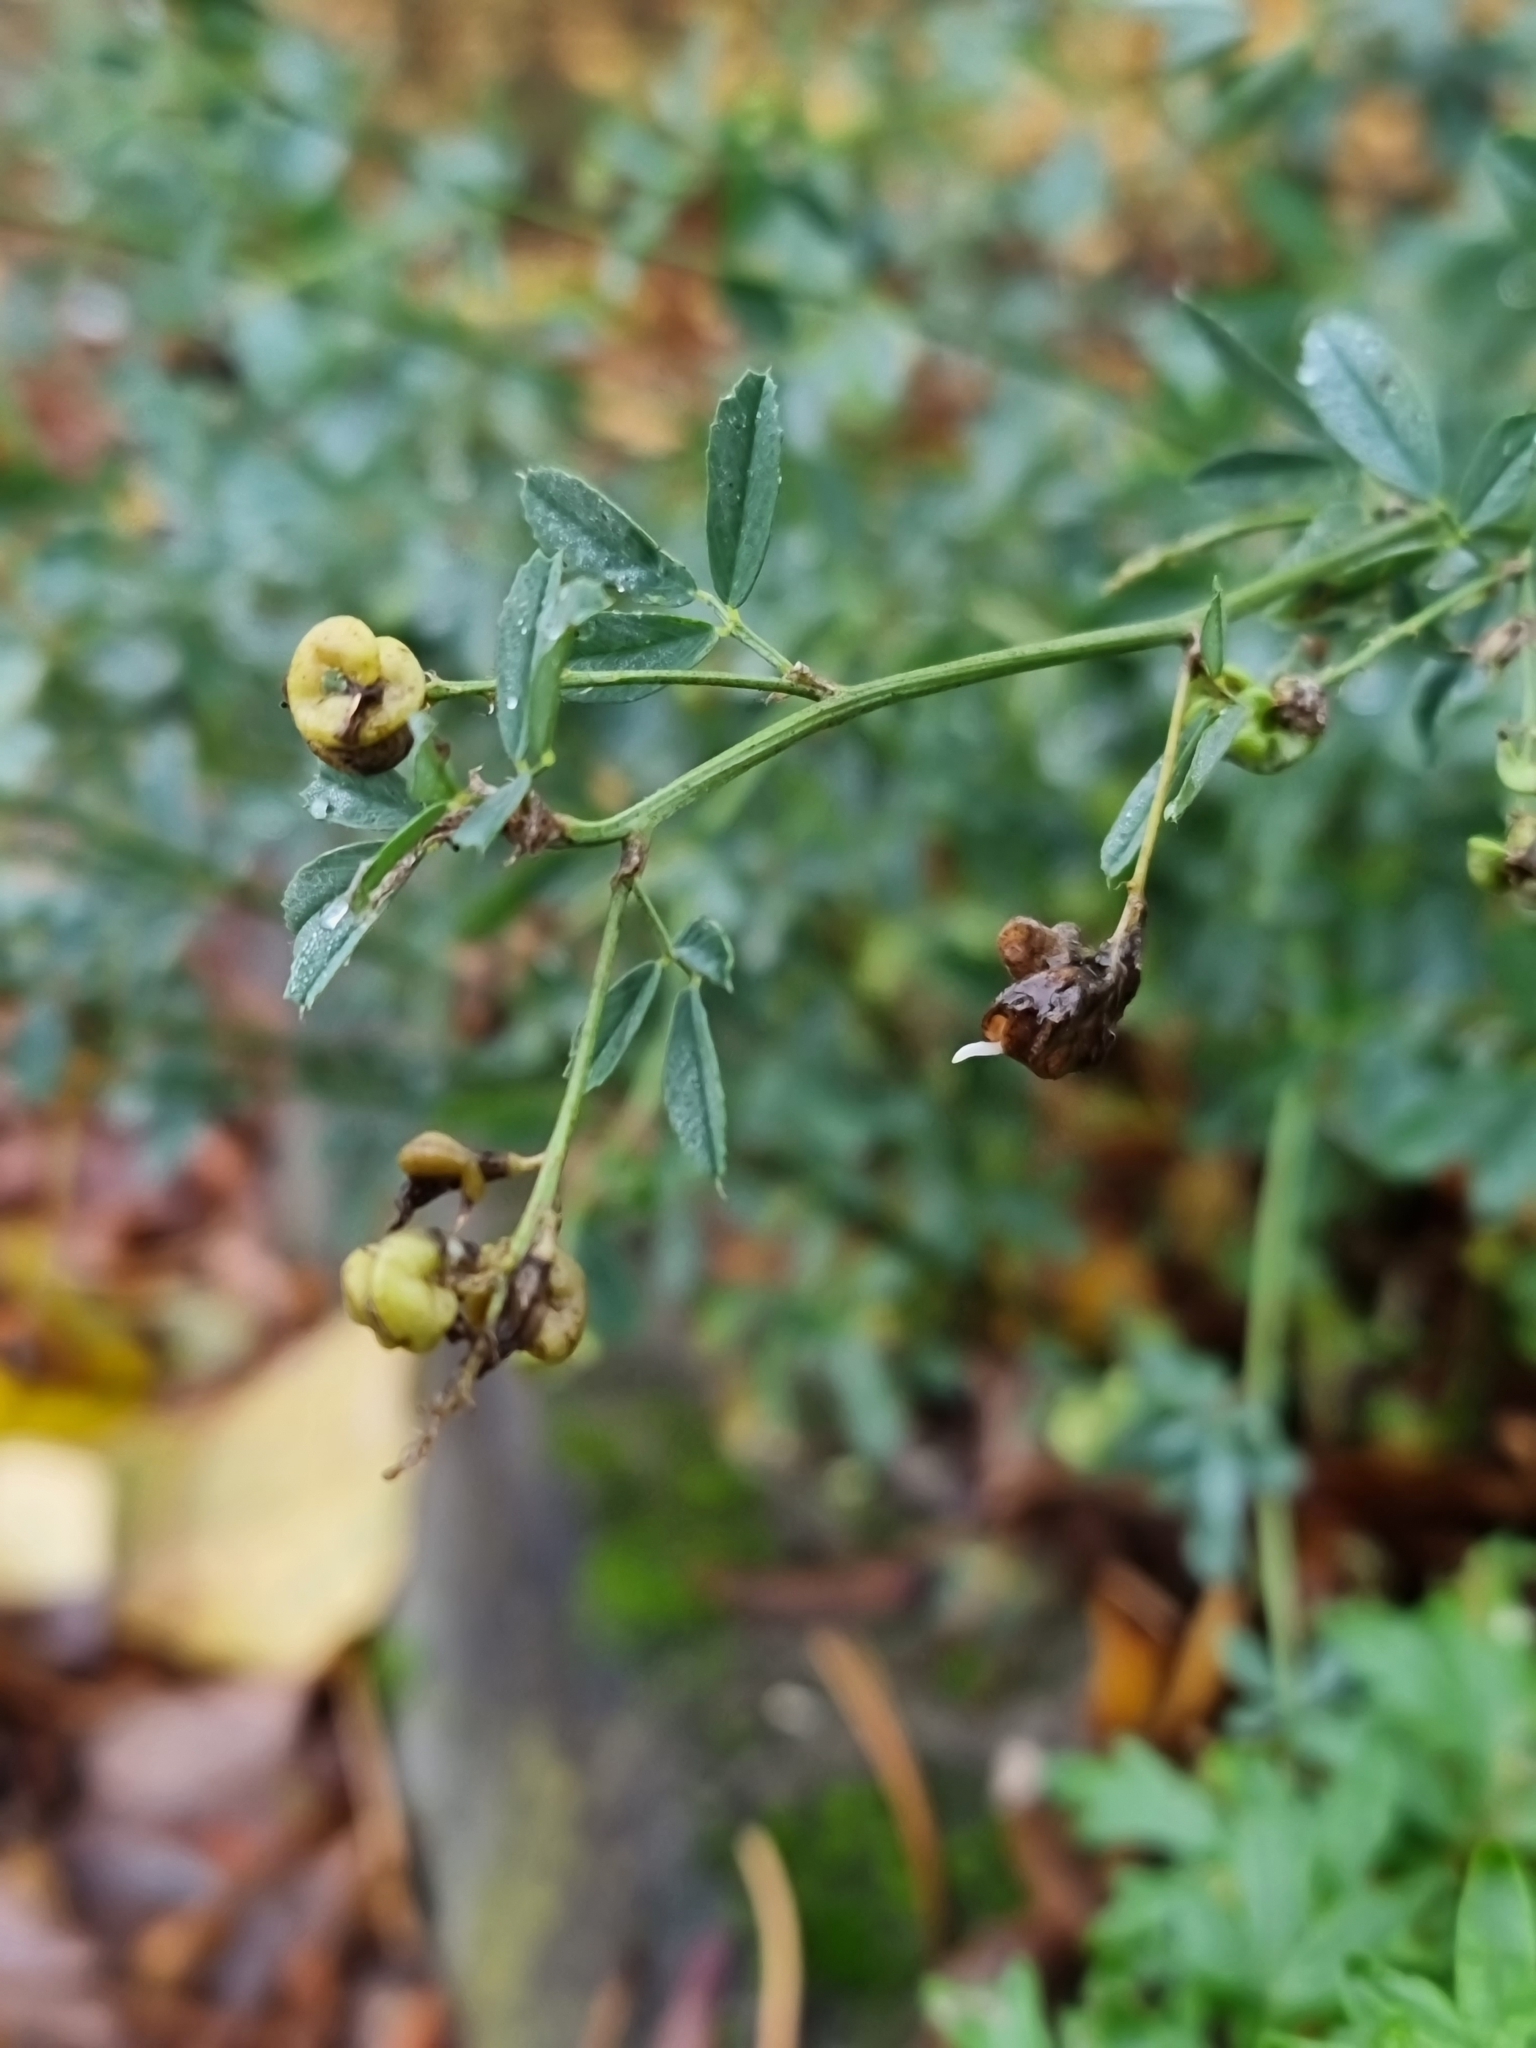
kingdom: Plantae
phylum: Tracheophyta
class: Magnoliopsida
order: Fabales
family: Fabaceae
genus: Medicago
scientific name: Medicago sativa
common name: Alfalfa
